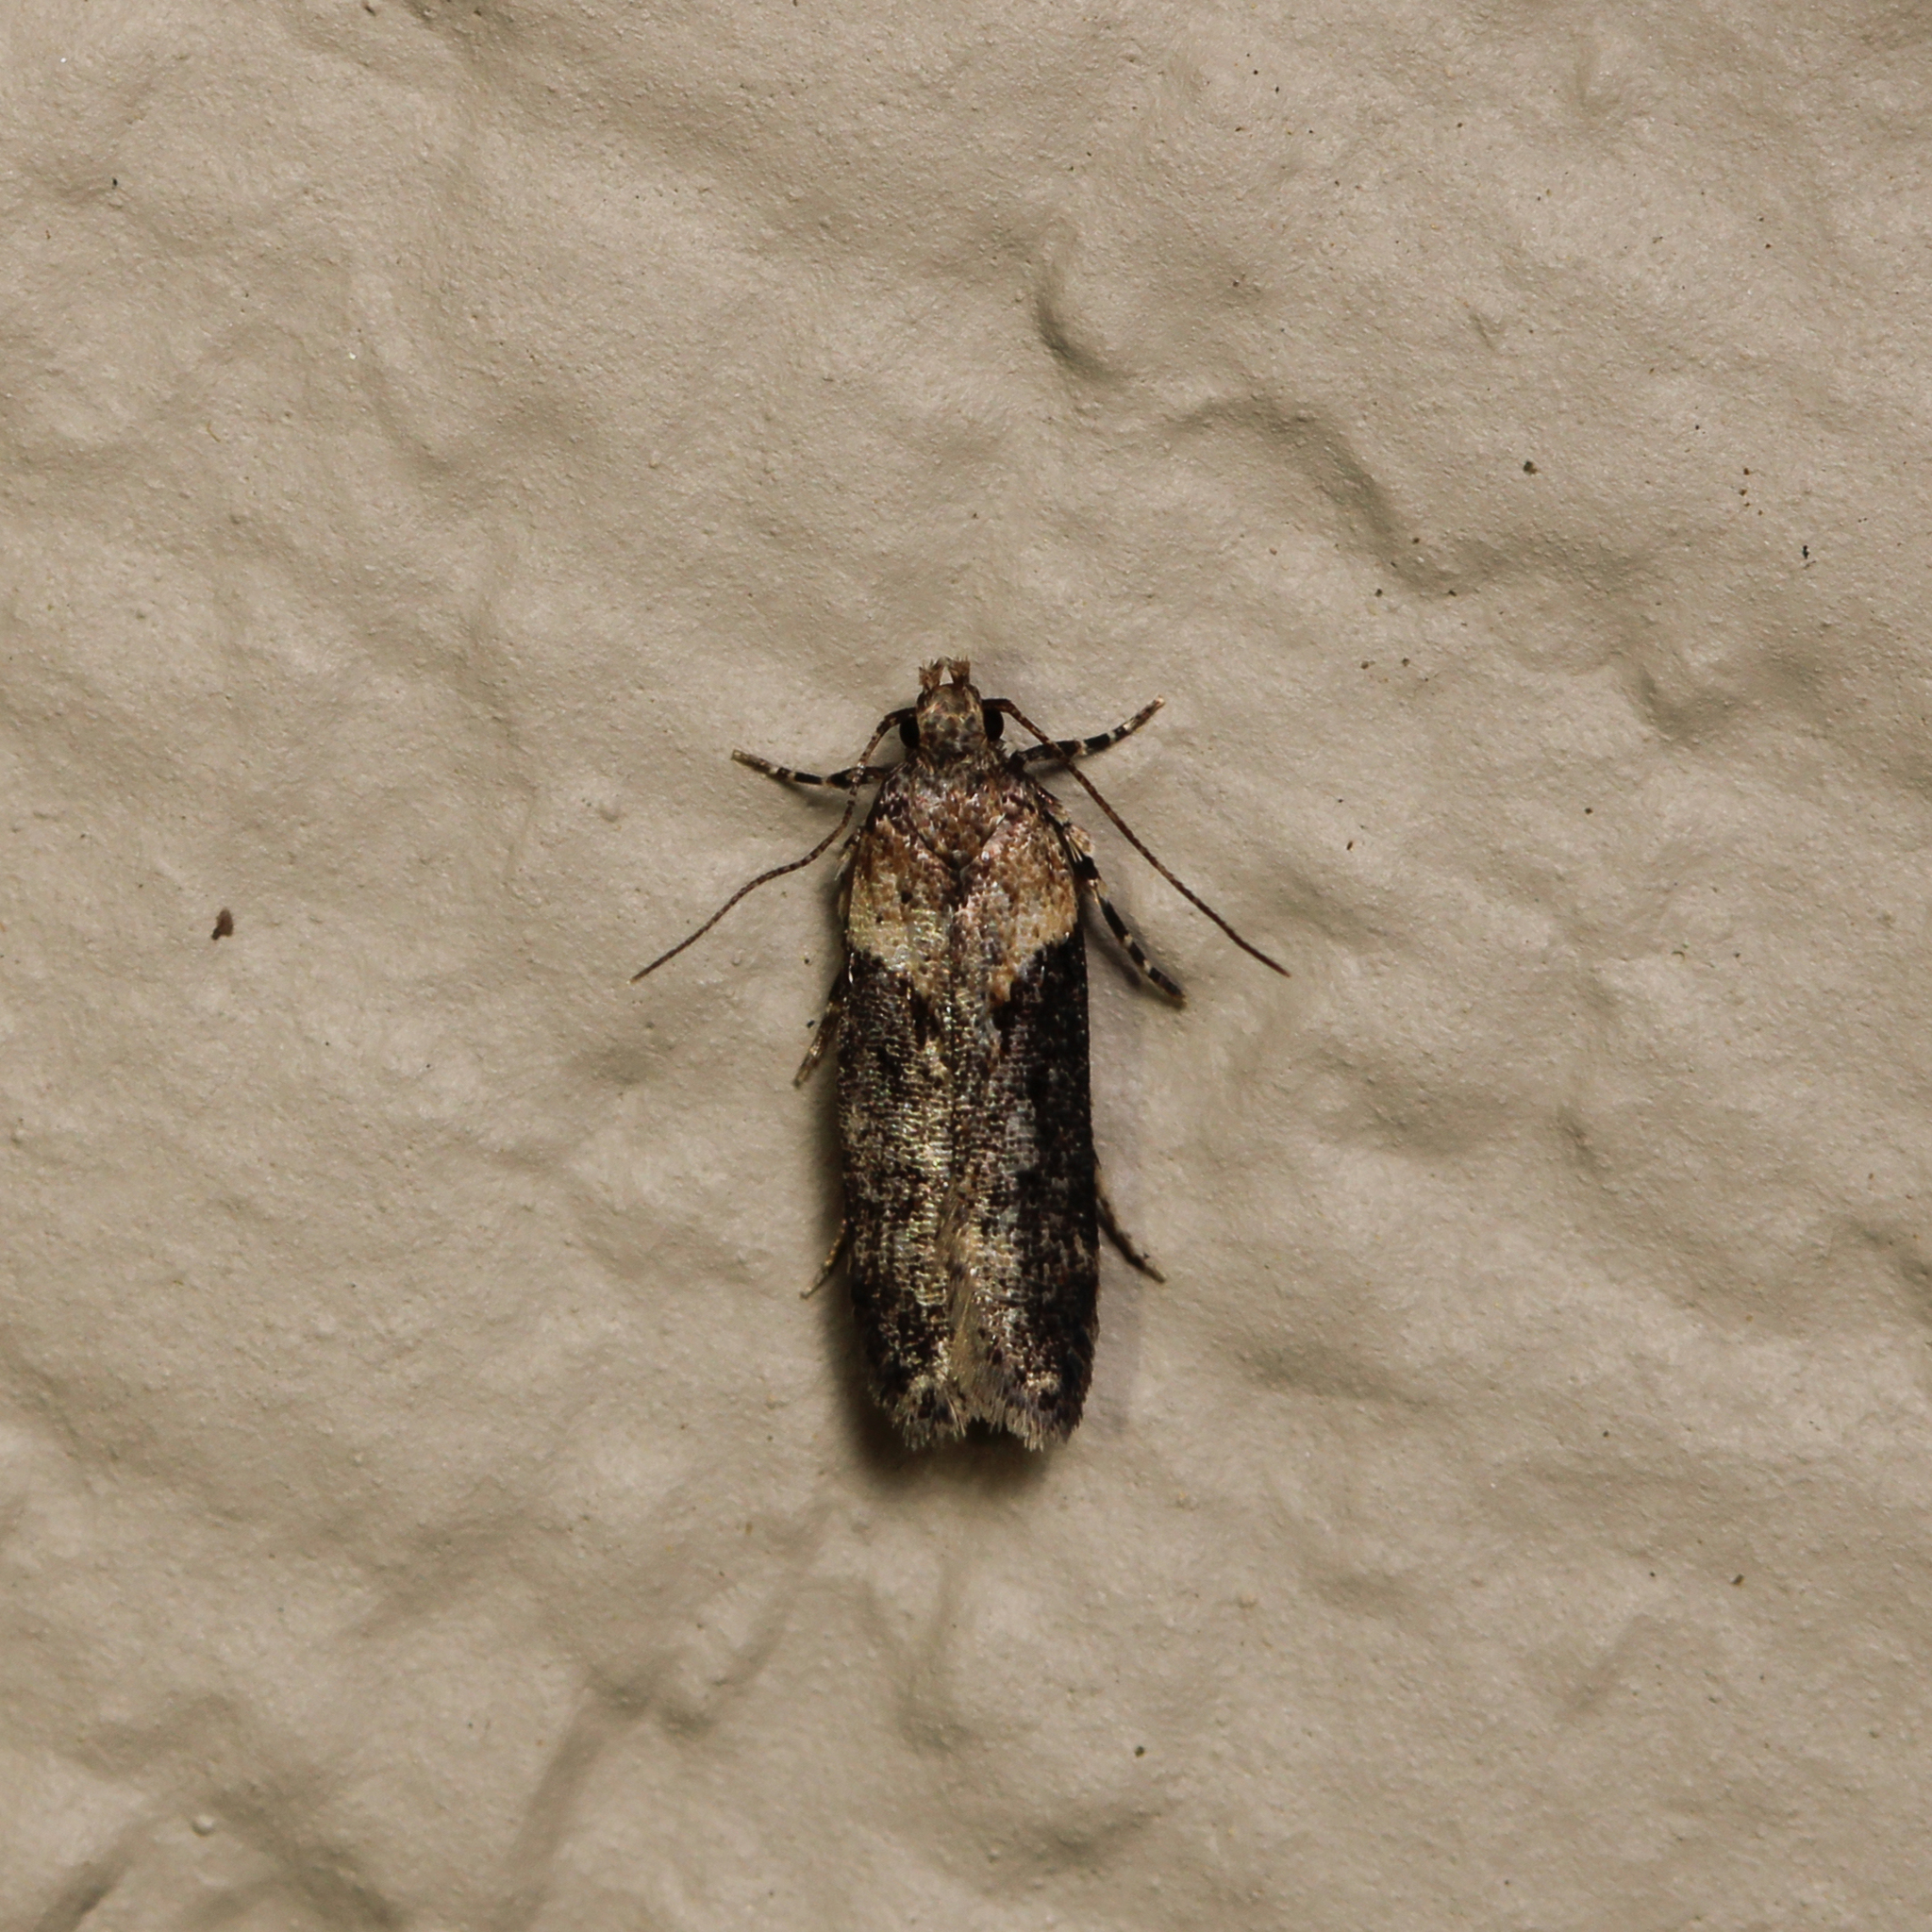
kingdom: Animalia
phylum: Arthropoda
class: Insecta
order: Lepidoptera
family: Gelechiidae
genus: Chionodes
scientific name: Chionodes mediofuscella
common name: Black-smudged chionodes moth
